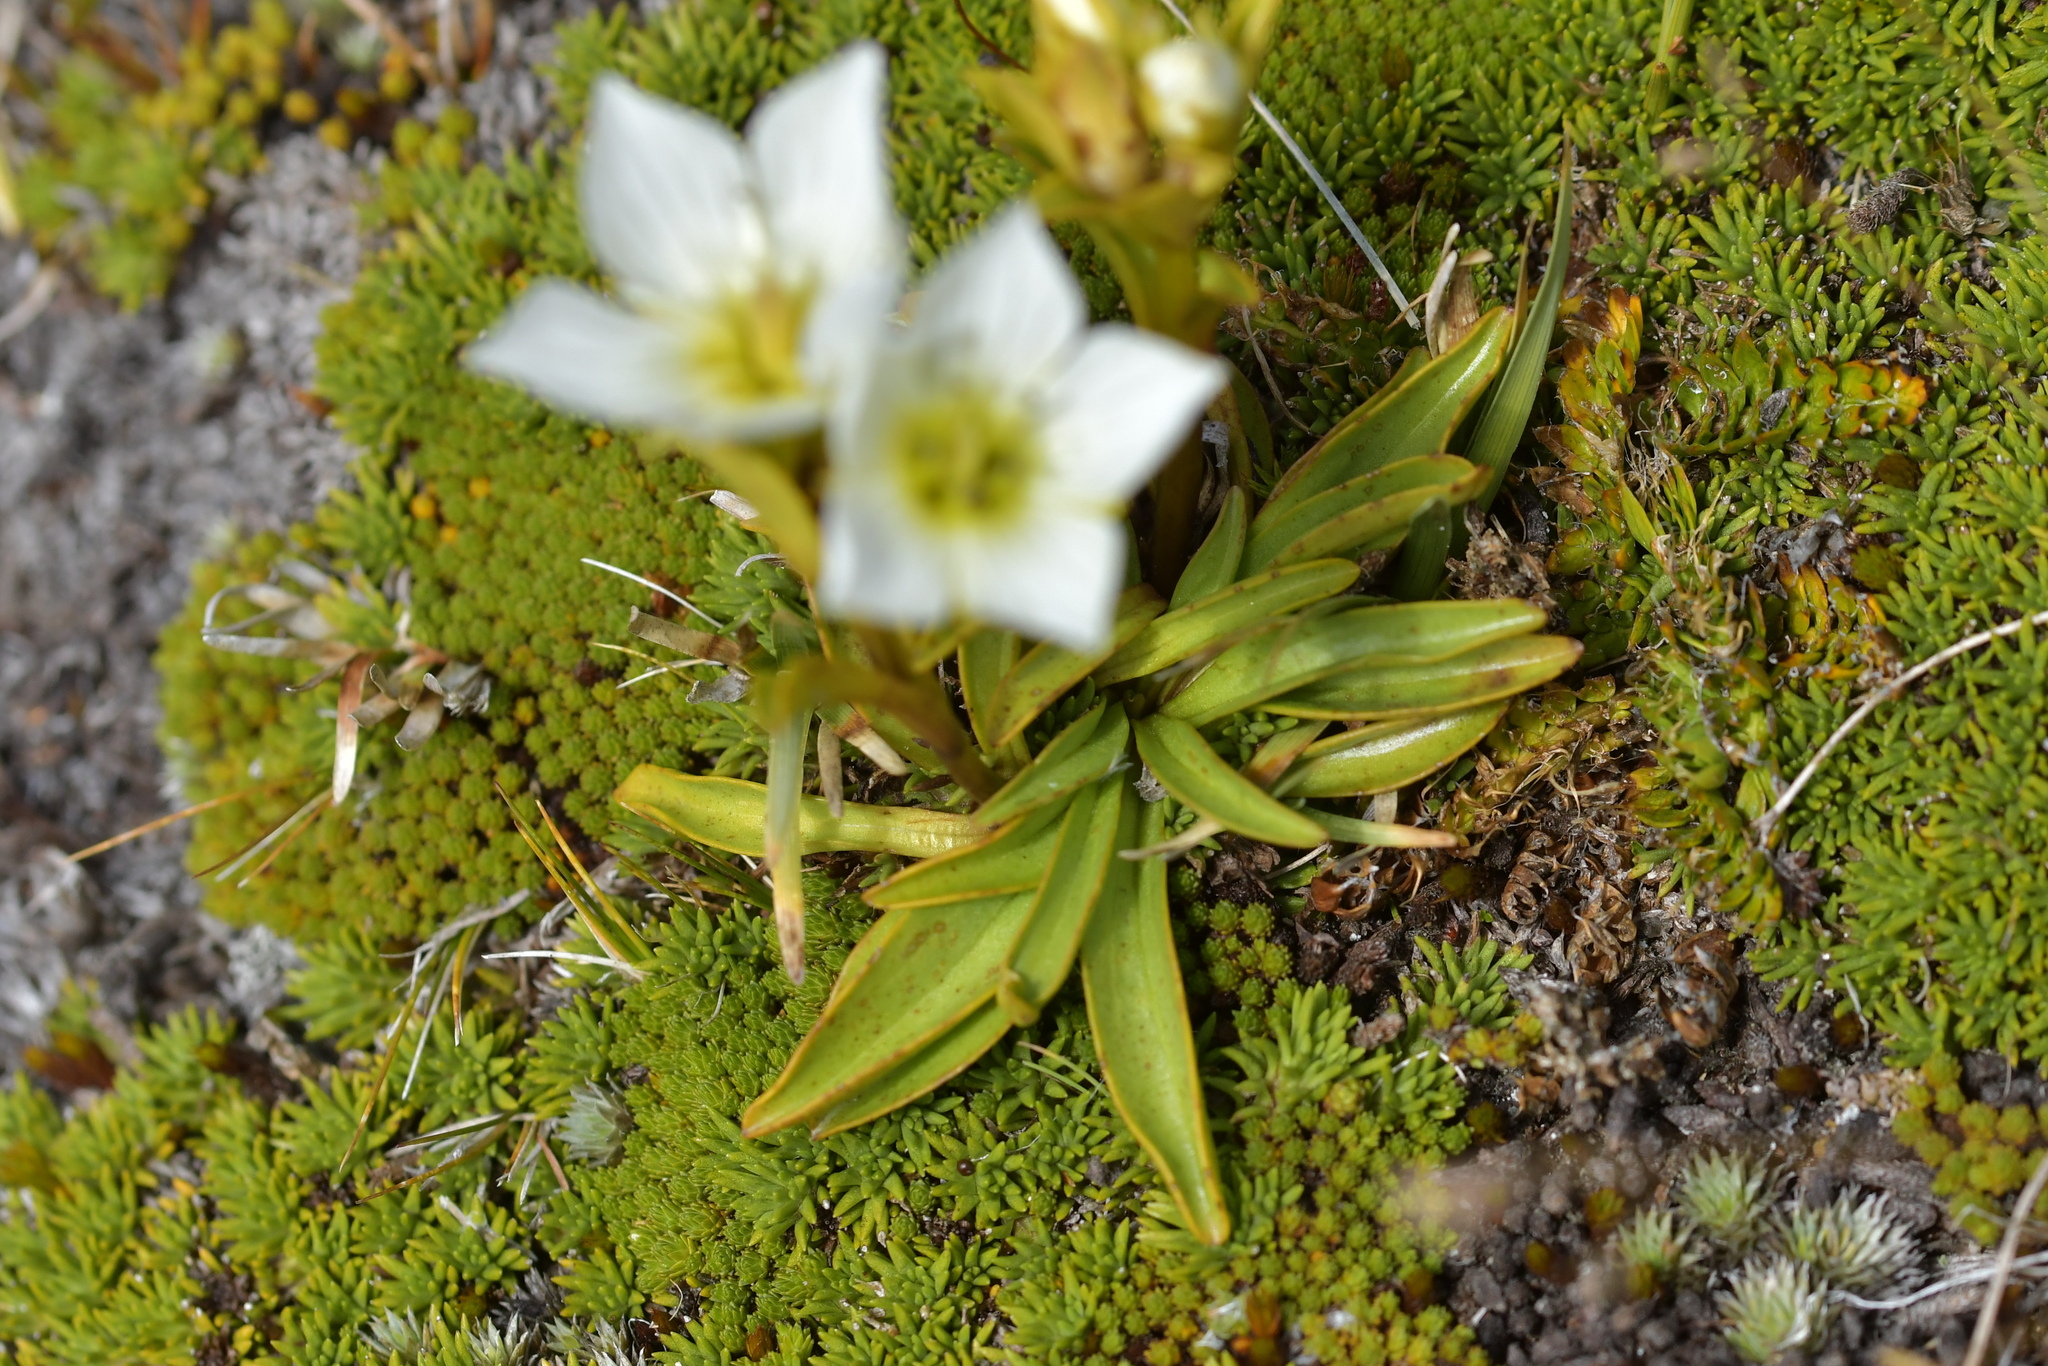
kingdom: Plantae
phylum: Tracheophyta
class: Magnoliopsida
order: Gentianales
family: Gentianaceae
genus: Gentianella
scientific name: Gentianella bellidifolia
